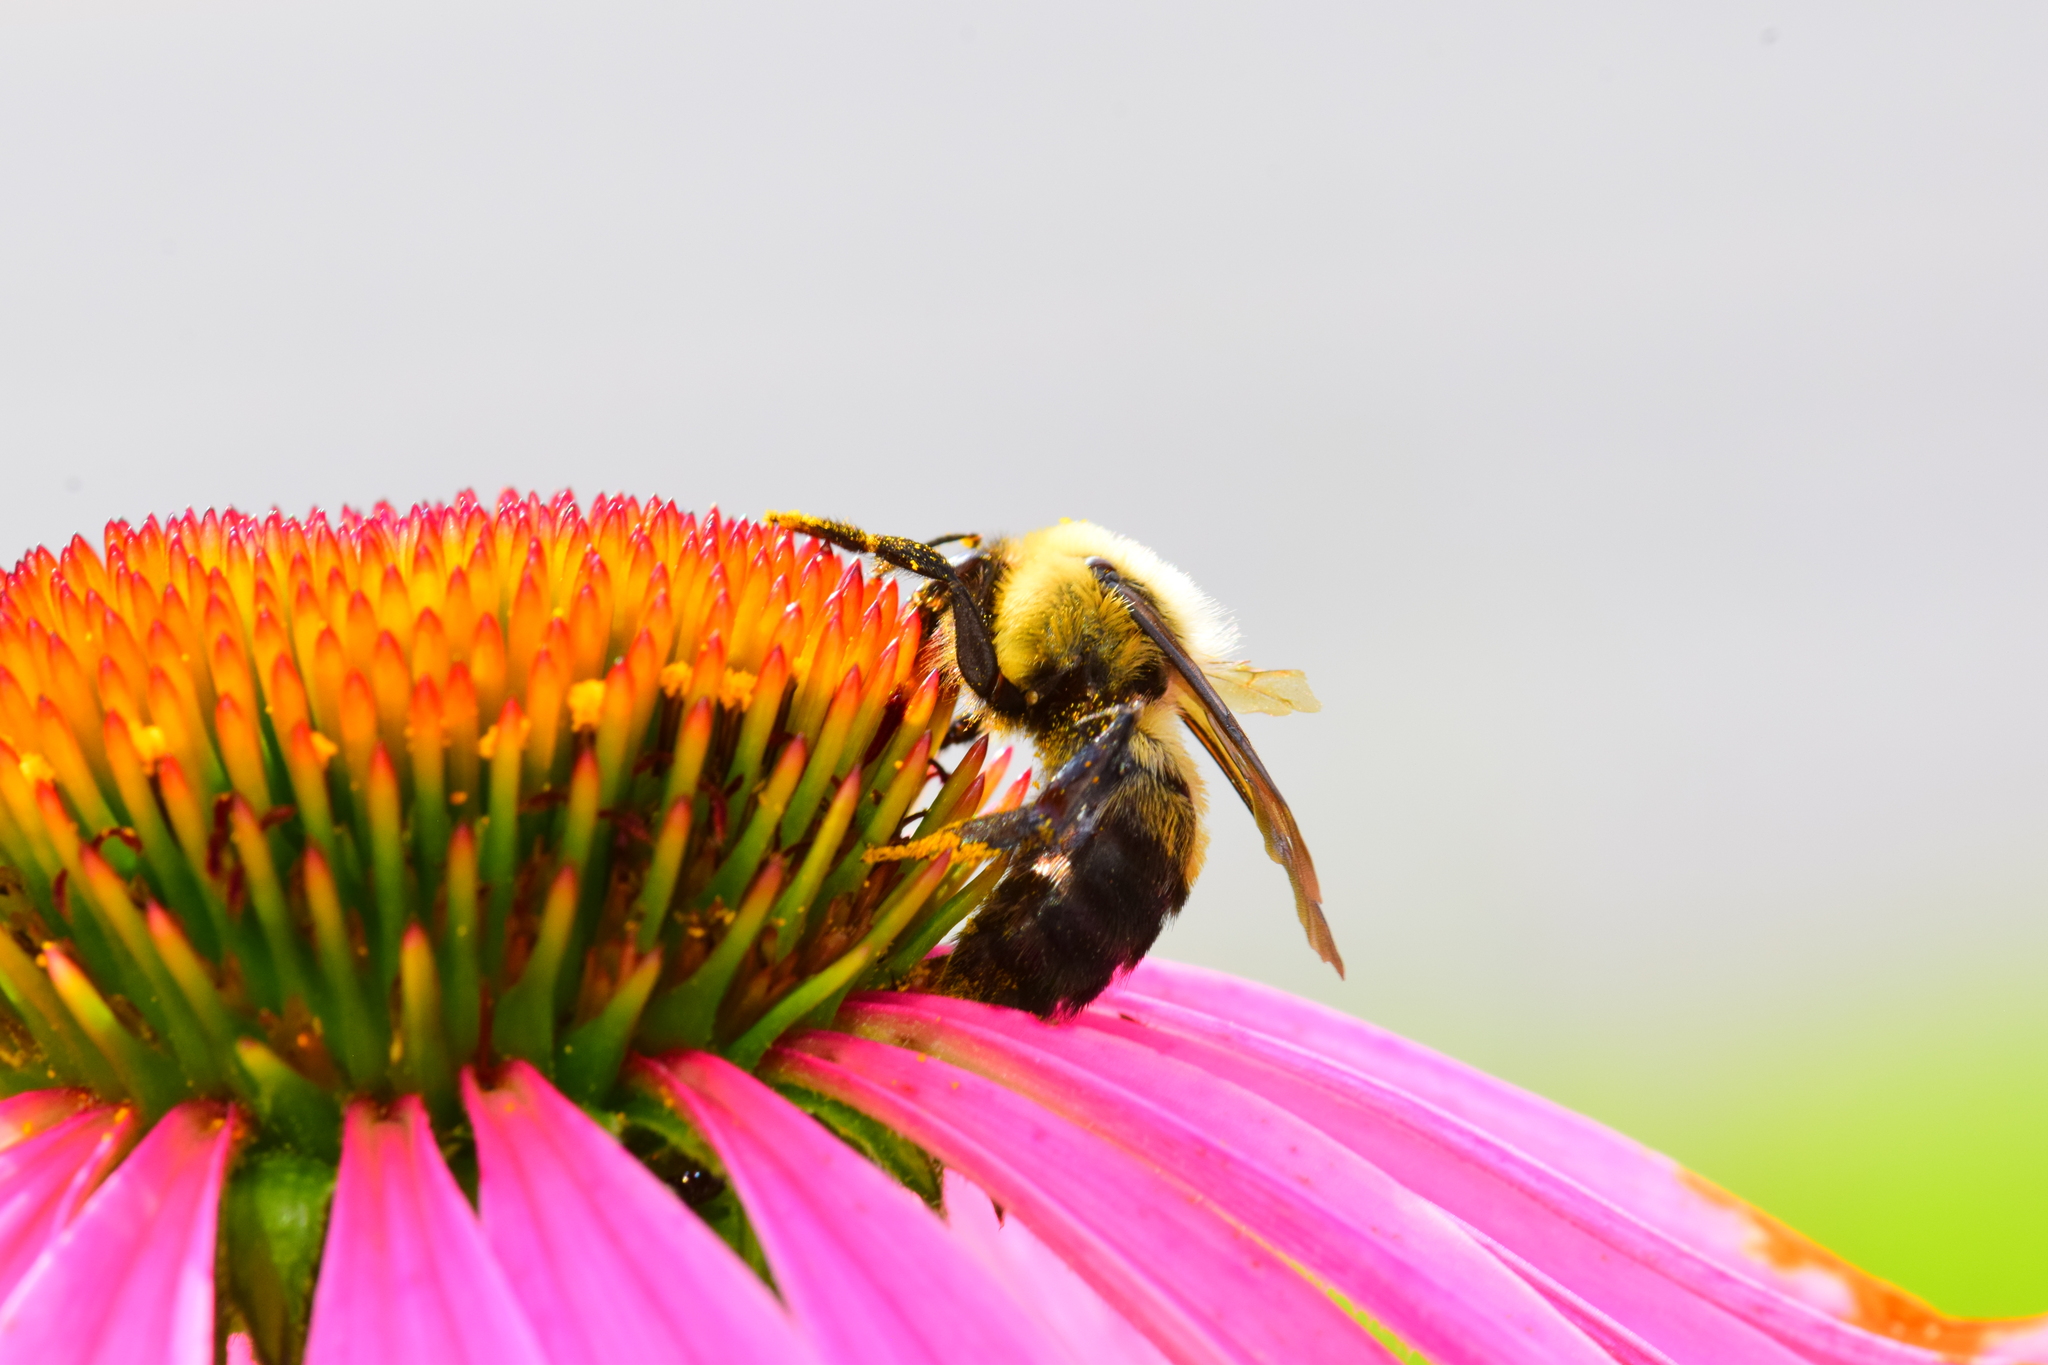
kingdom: Animalia
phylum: Arthropoda
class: Insecta
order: Hymenoptera
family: Apidae
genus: Bombus
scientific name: Bombus griseocollis
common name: Brown-belted bumble bee
